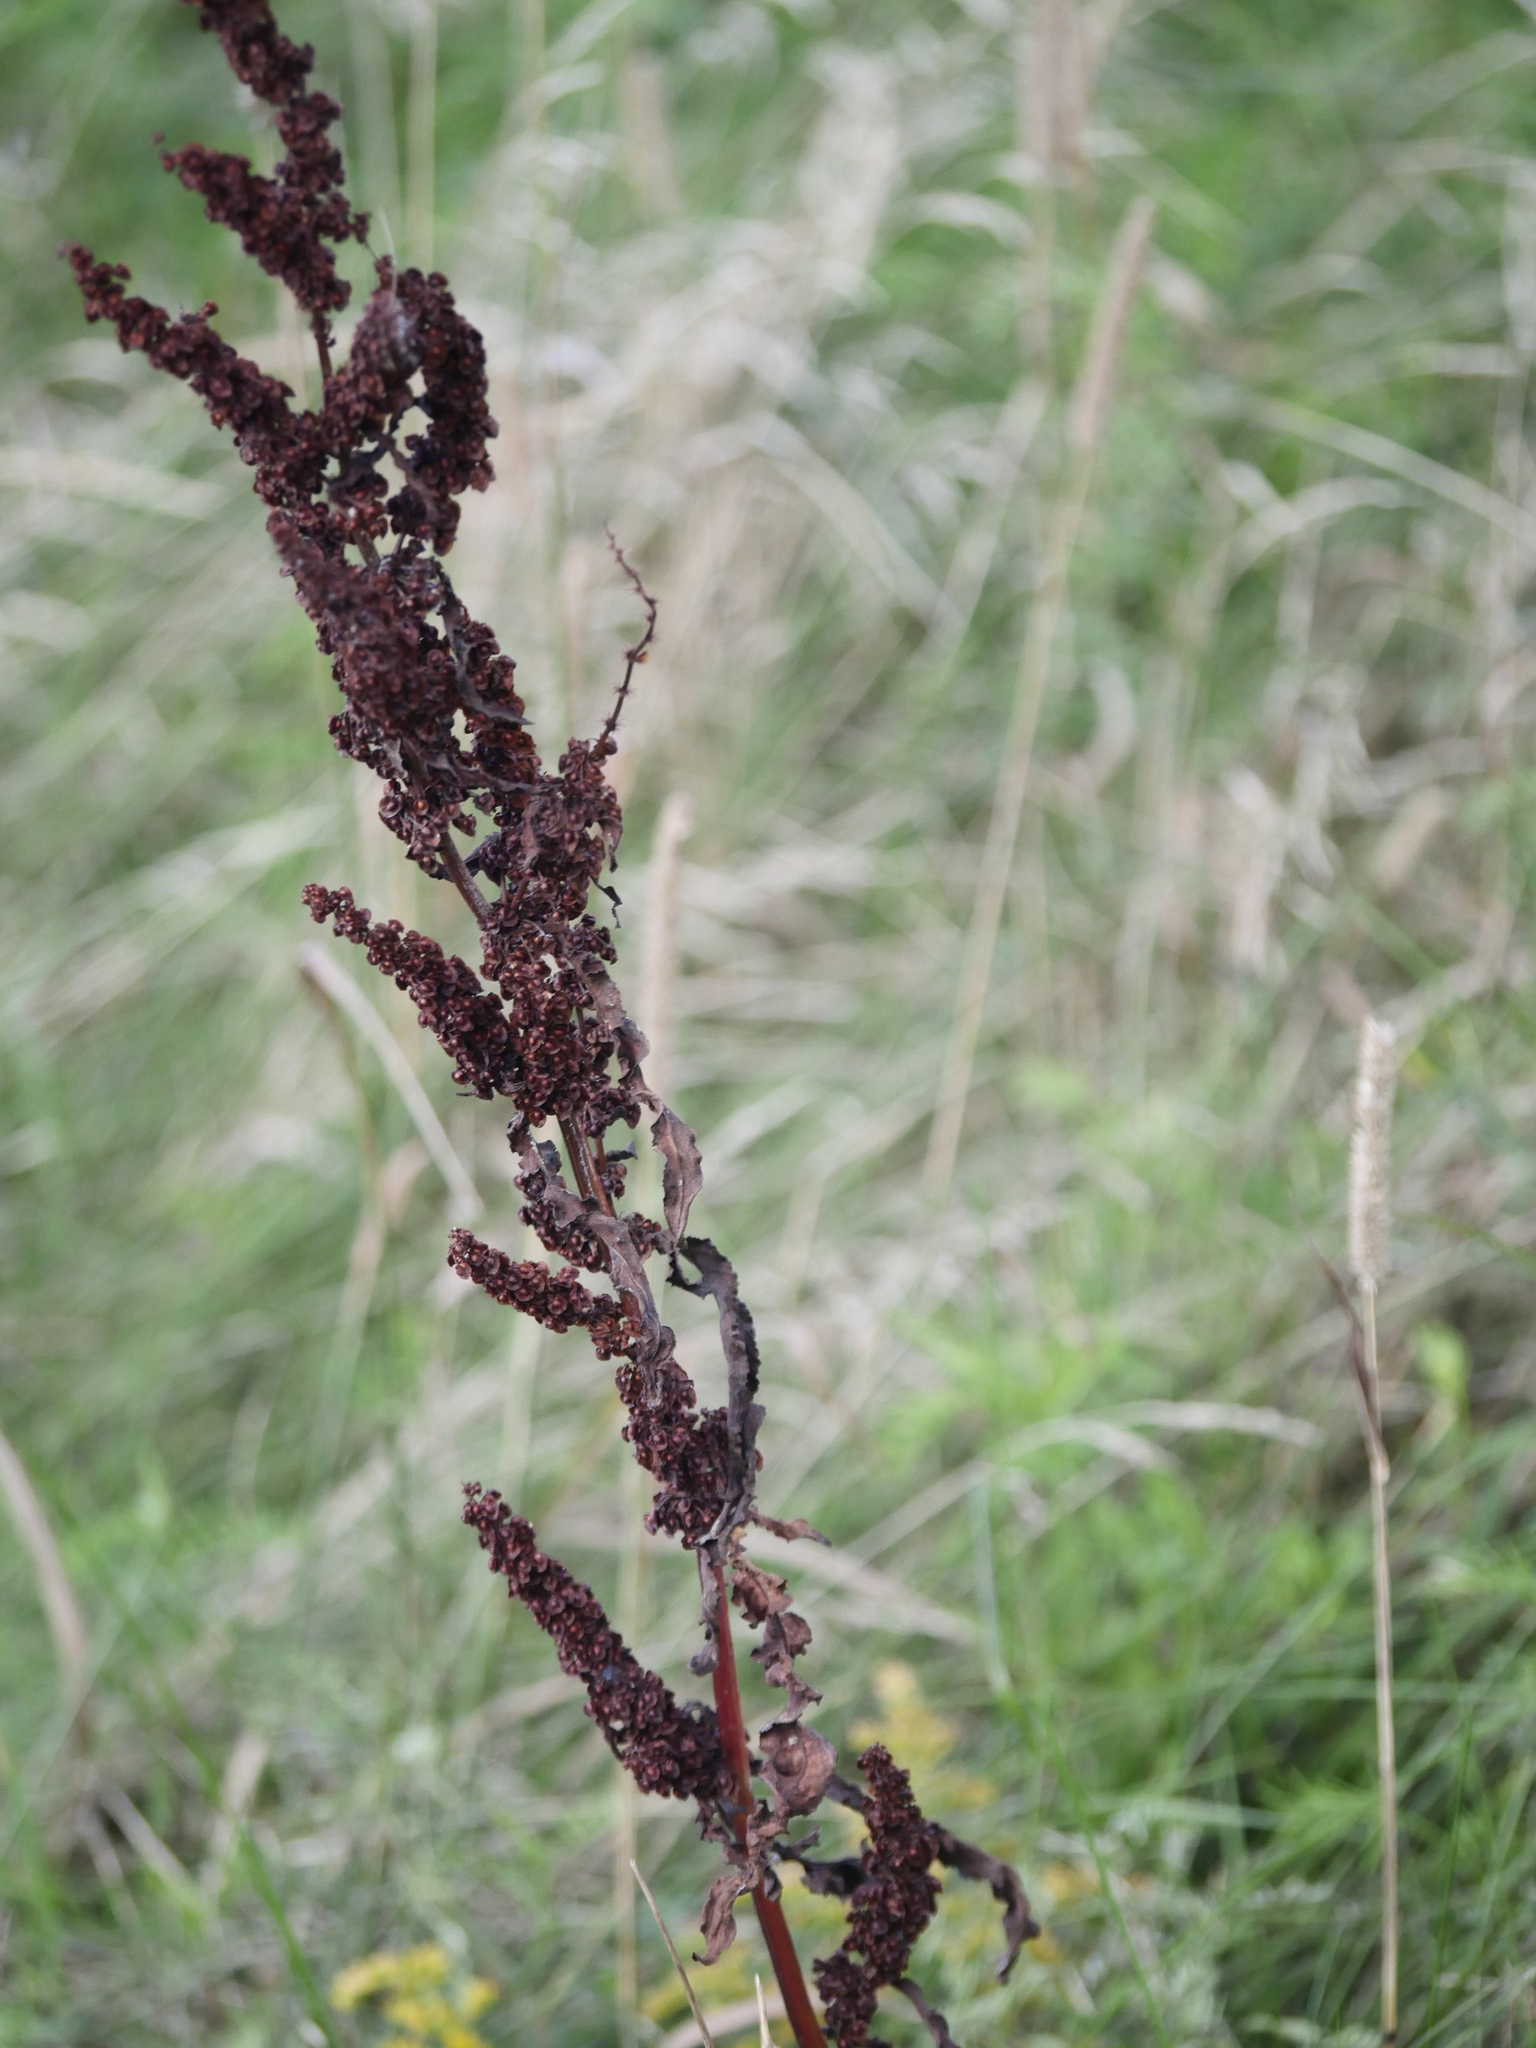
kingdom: Plantae
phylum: Tracheophyta
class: Magnoliopsida
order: Caryophyllales
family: Polygonaceae
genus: Rumex
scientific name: Rumex crispus
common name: Curled dock
